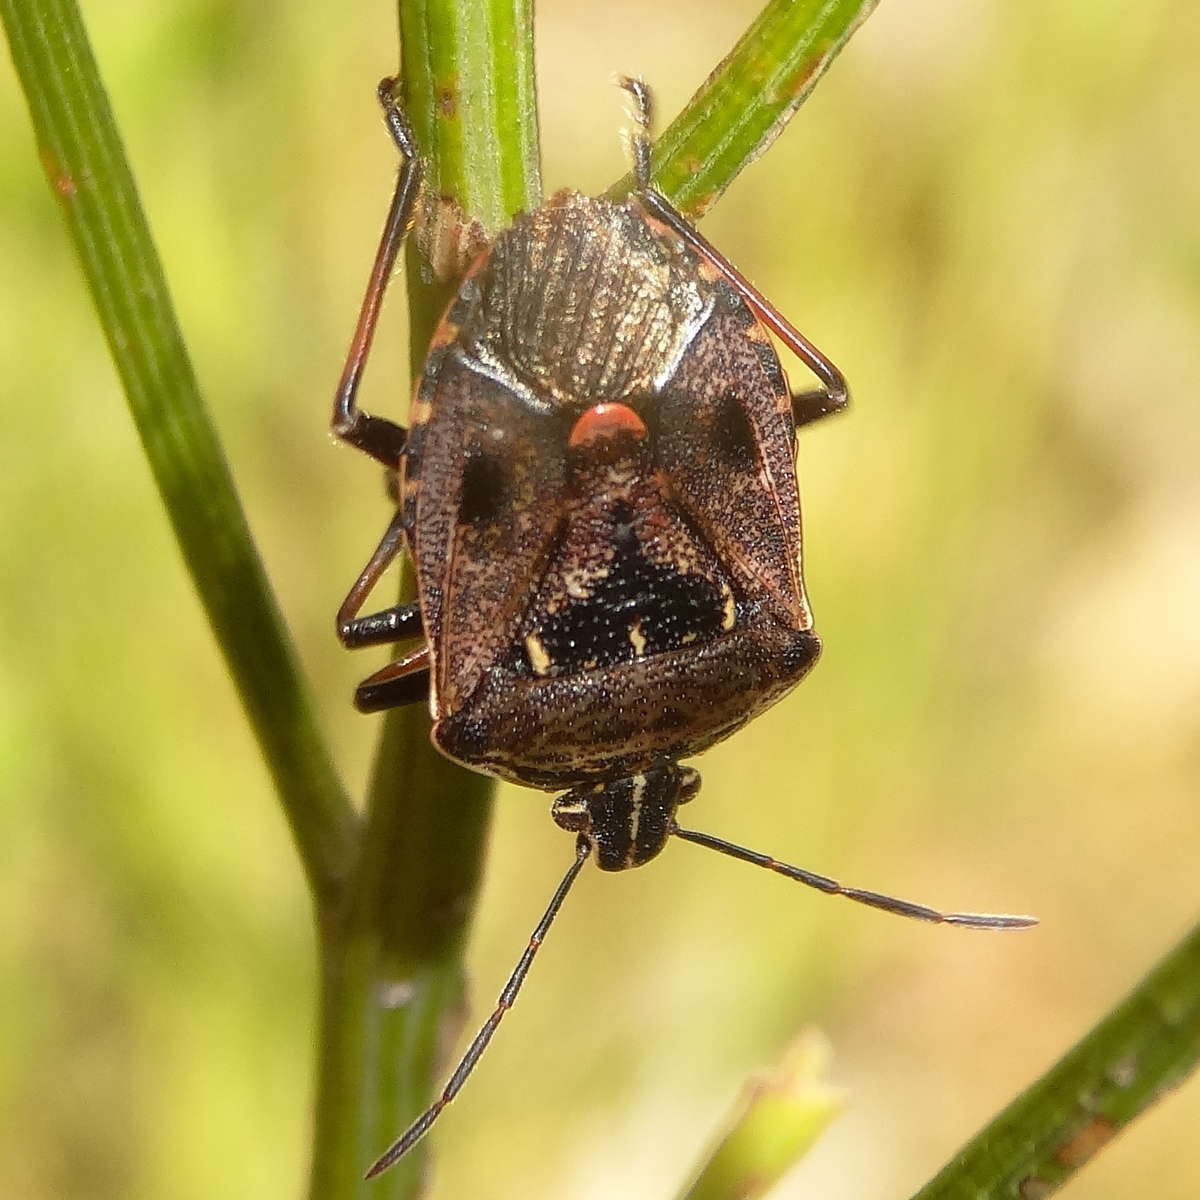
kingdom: Animalia
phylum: Arthropoda
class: Insecta
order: Hemiptera
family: Pentatomidae
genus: Cermatulus
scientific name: Cermatulus nasalis
